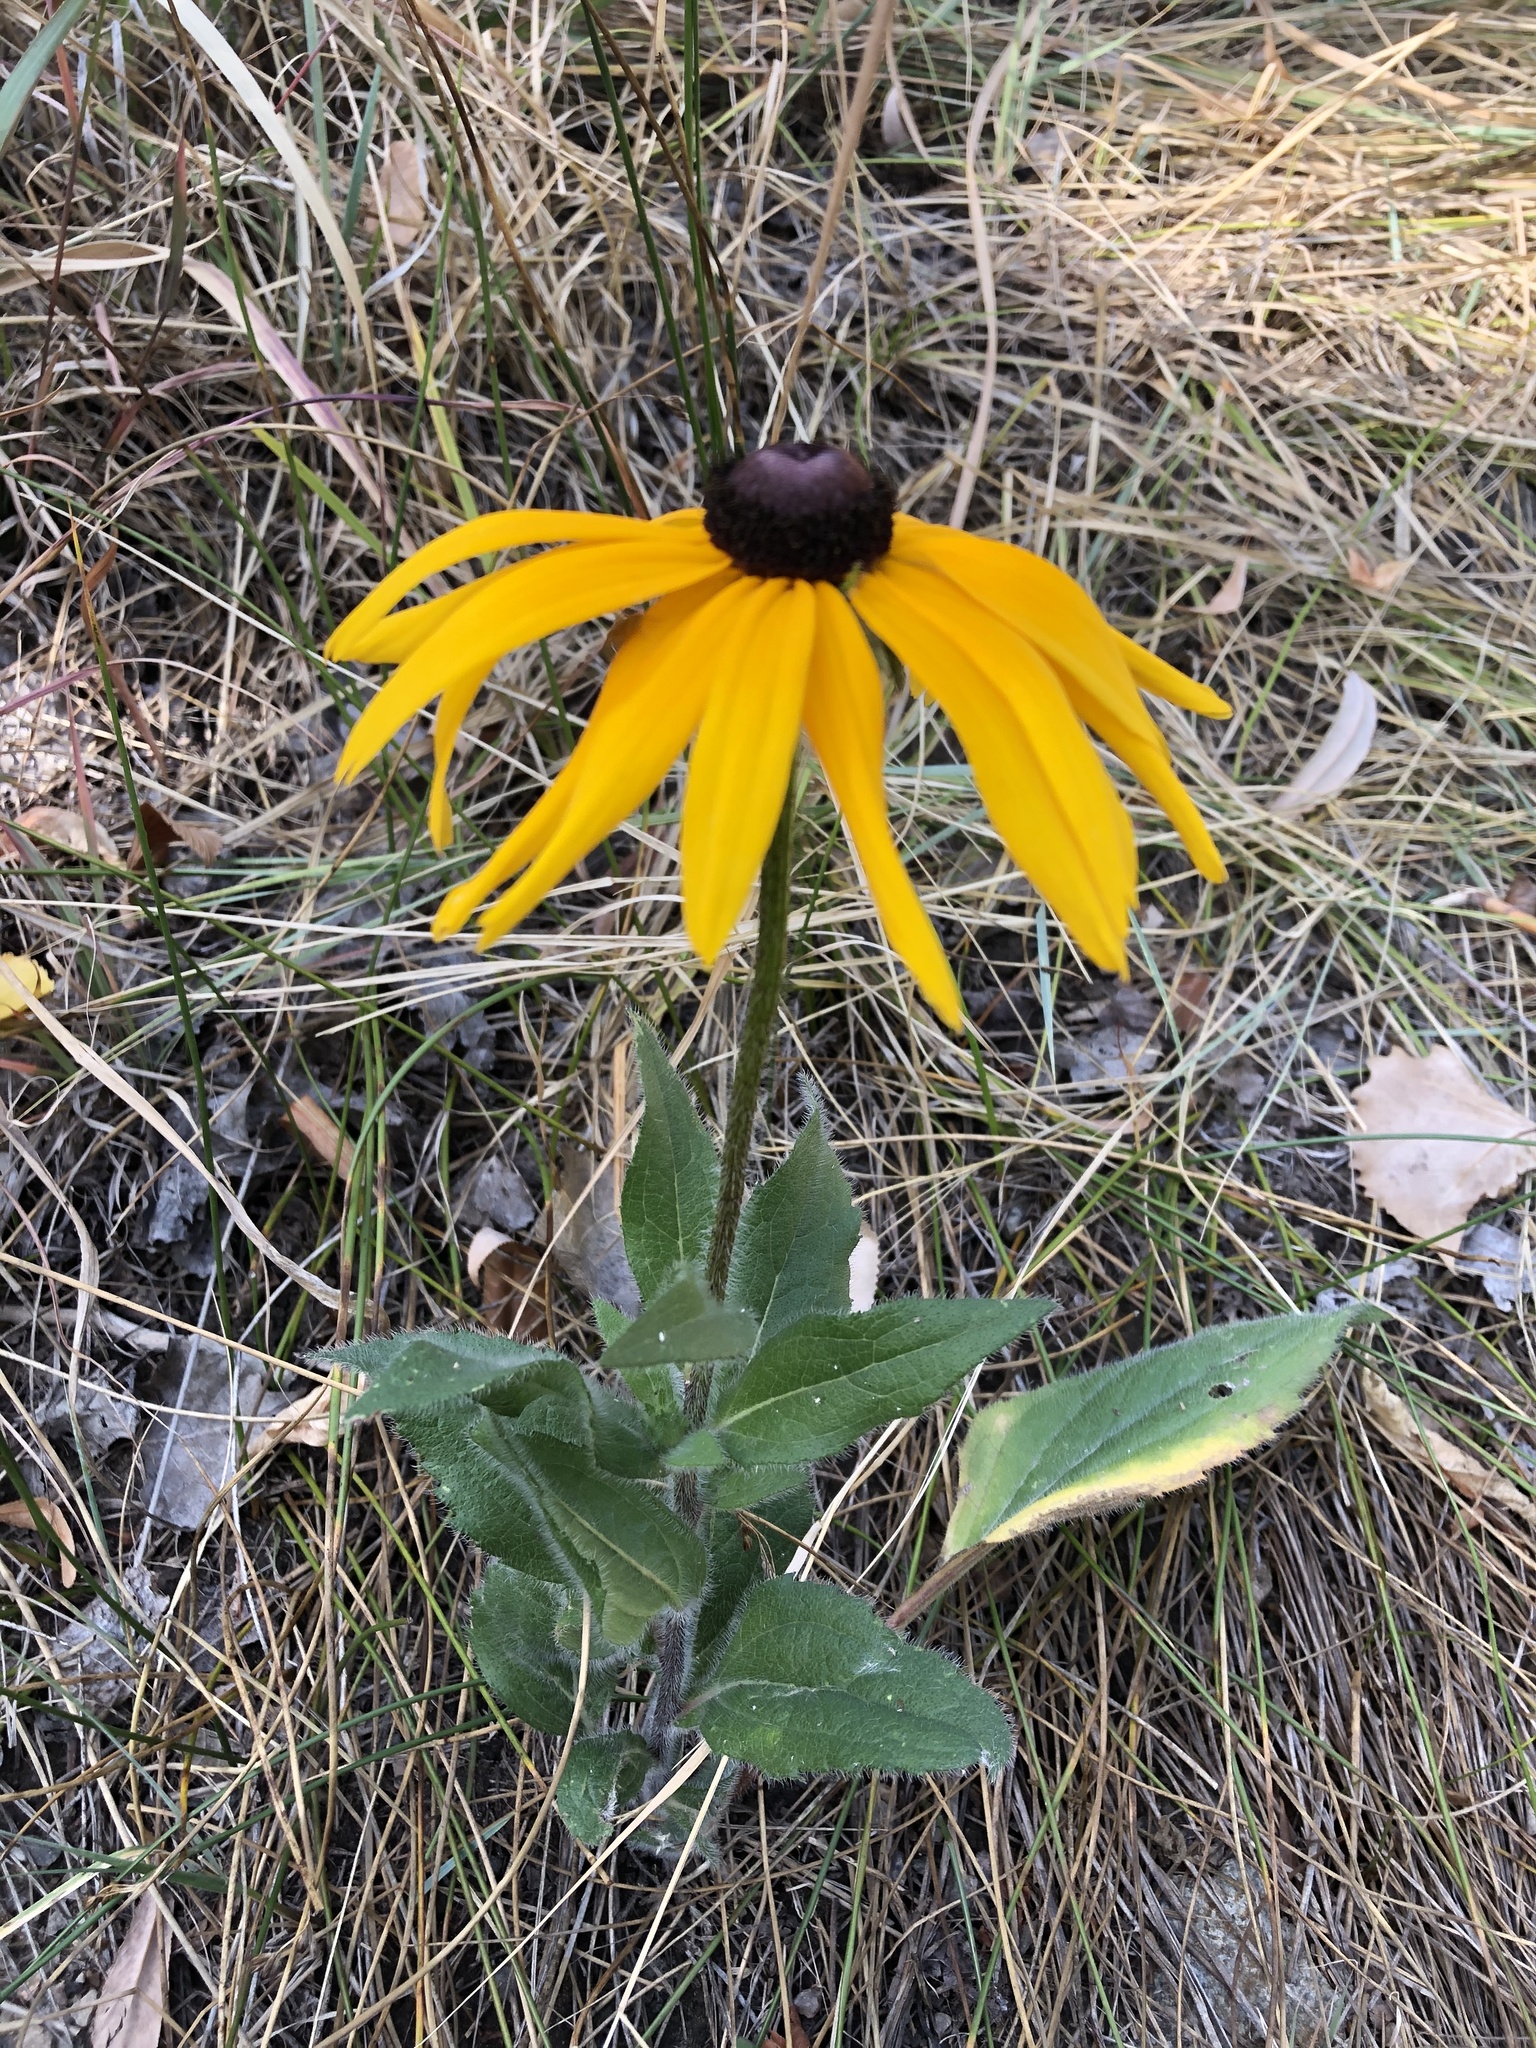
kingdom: Plantae
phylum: Tracheophyta
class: Magnoliopsida
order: Asterales
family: Asteraceae
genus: Rudbeckia
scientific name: Rudbeckia hirta
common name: Black-eyed-susan
